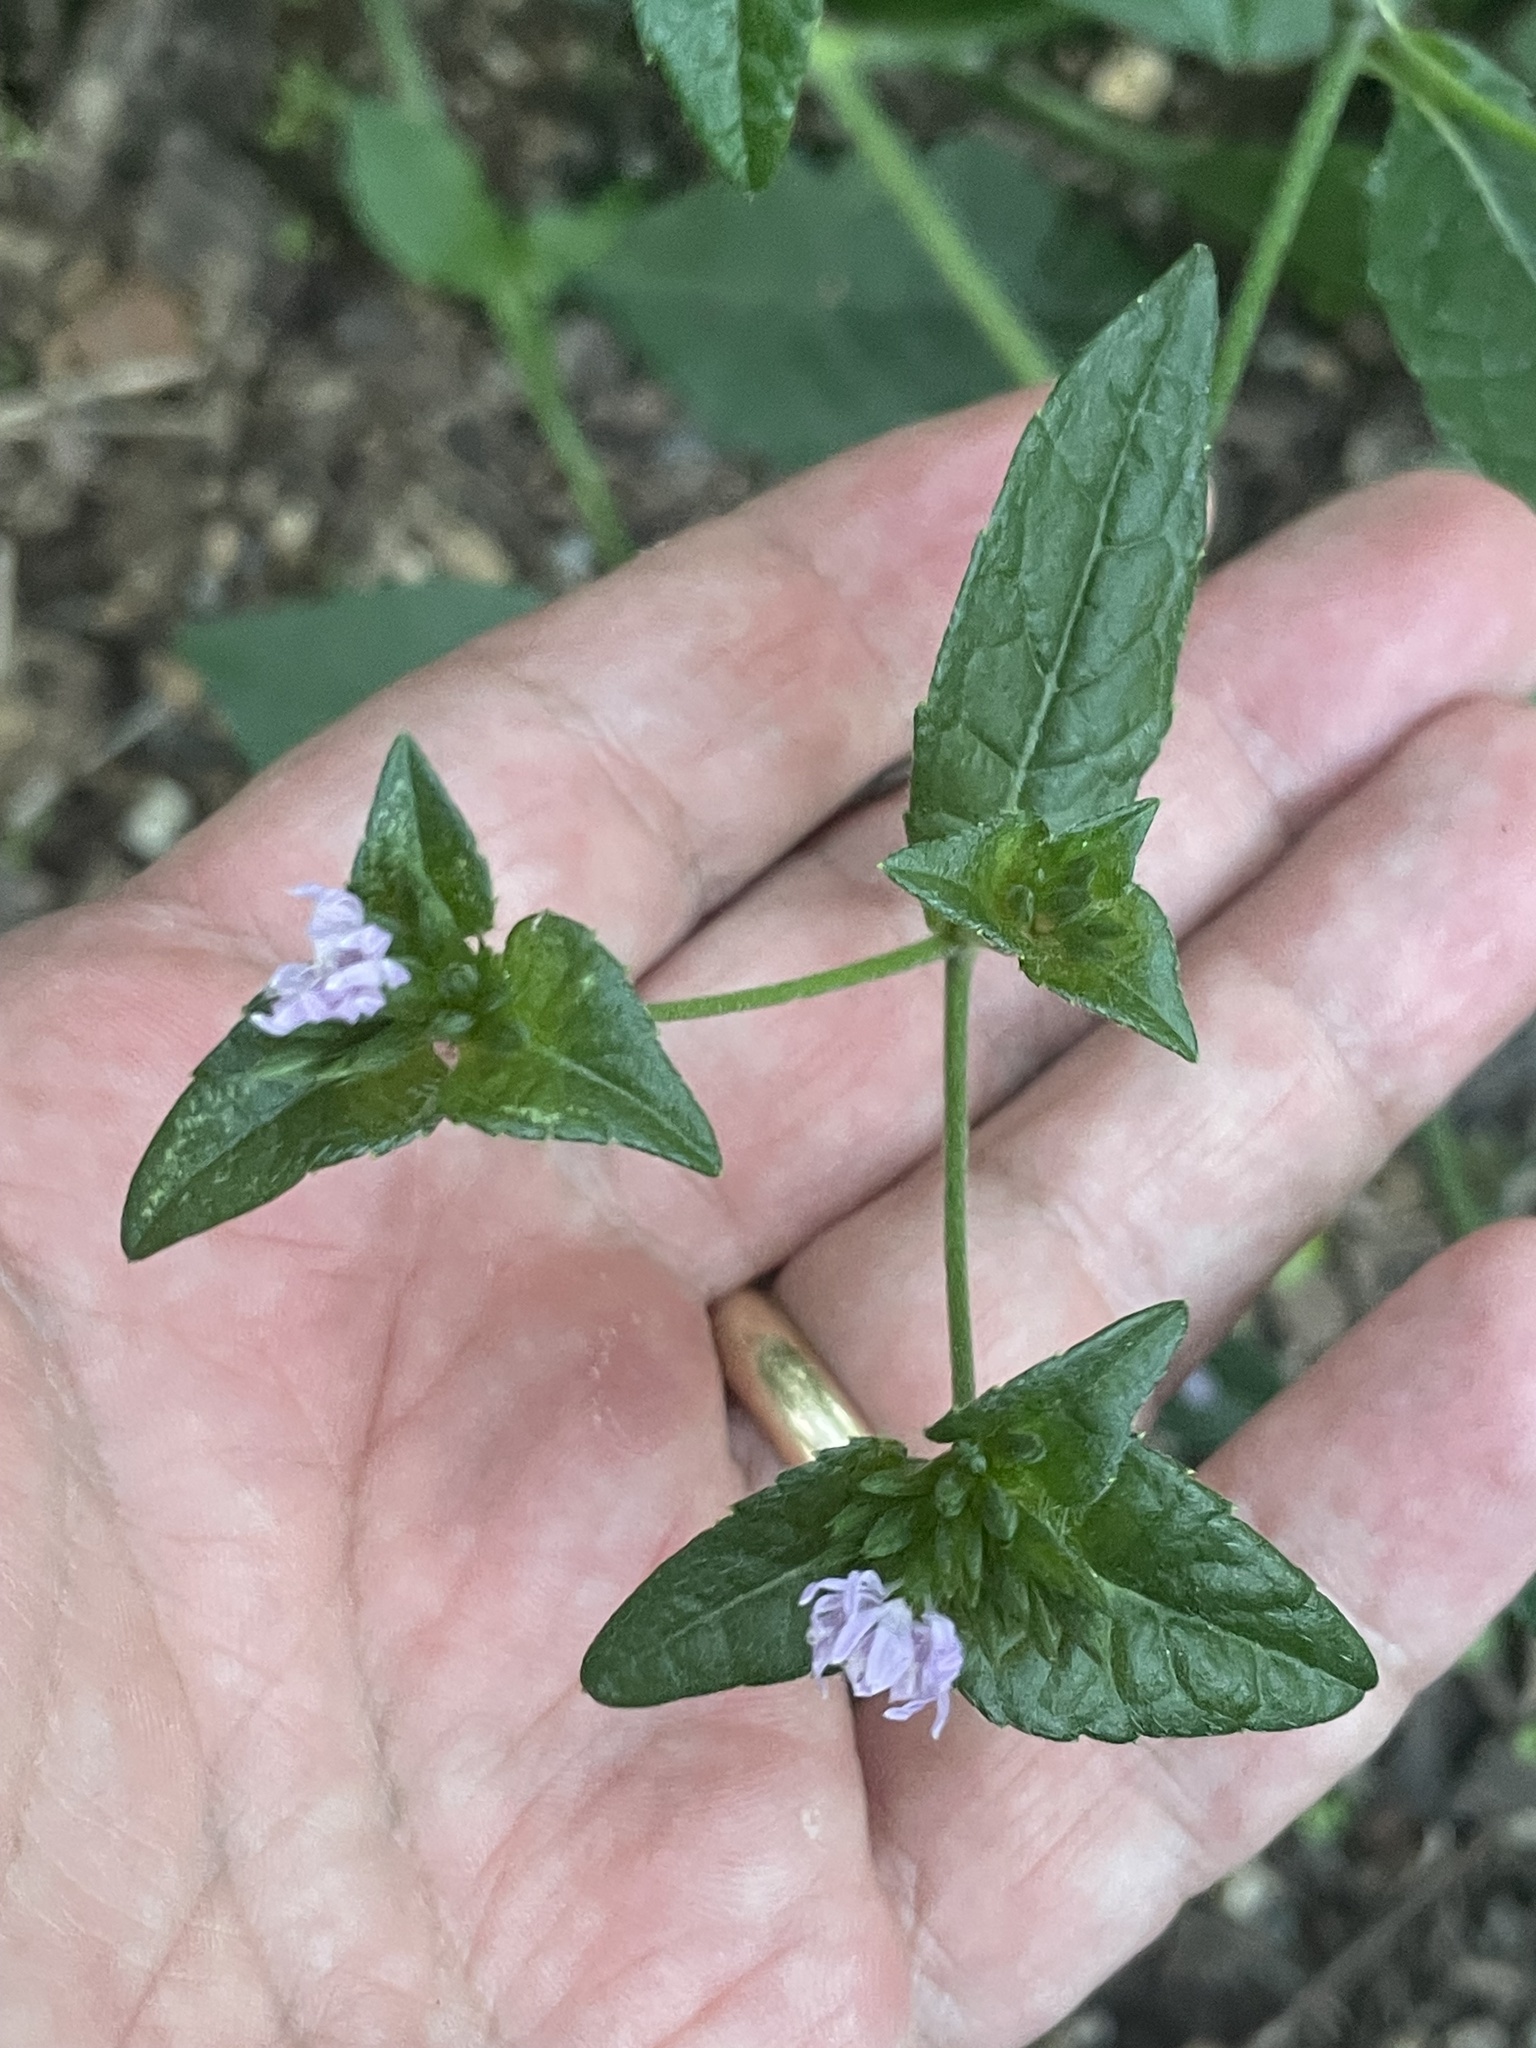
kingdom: Plantae
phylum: Tracheophyta
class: Magnoliopsida
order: Asterales
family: Asteraceae
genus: Elephantopus
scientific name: Elephantopus carolinianus
